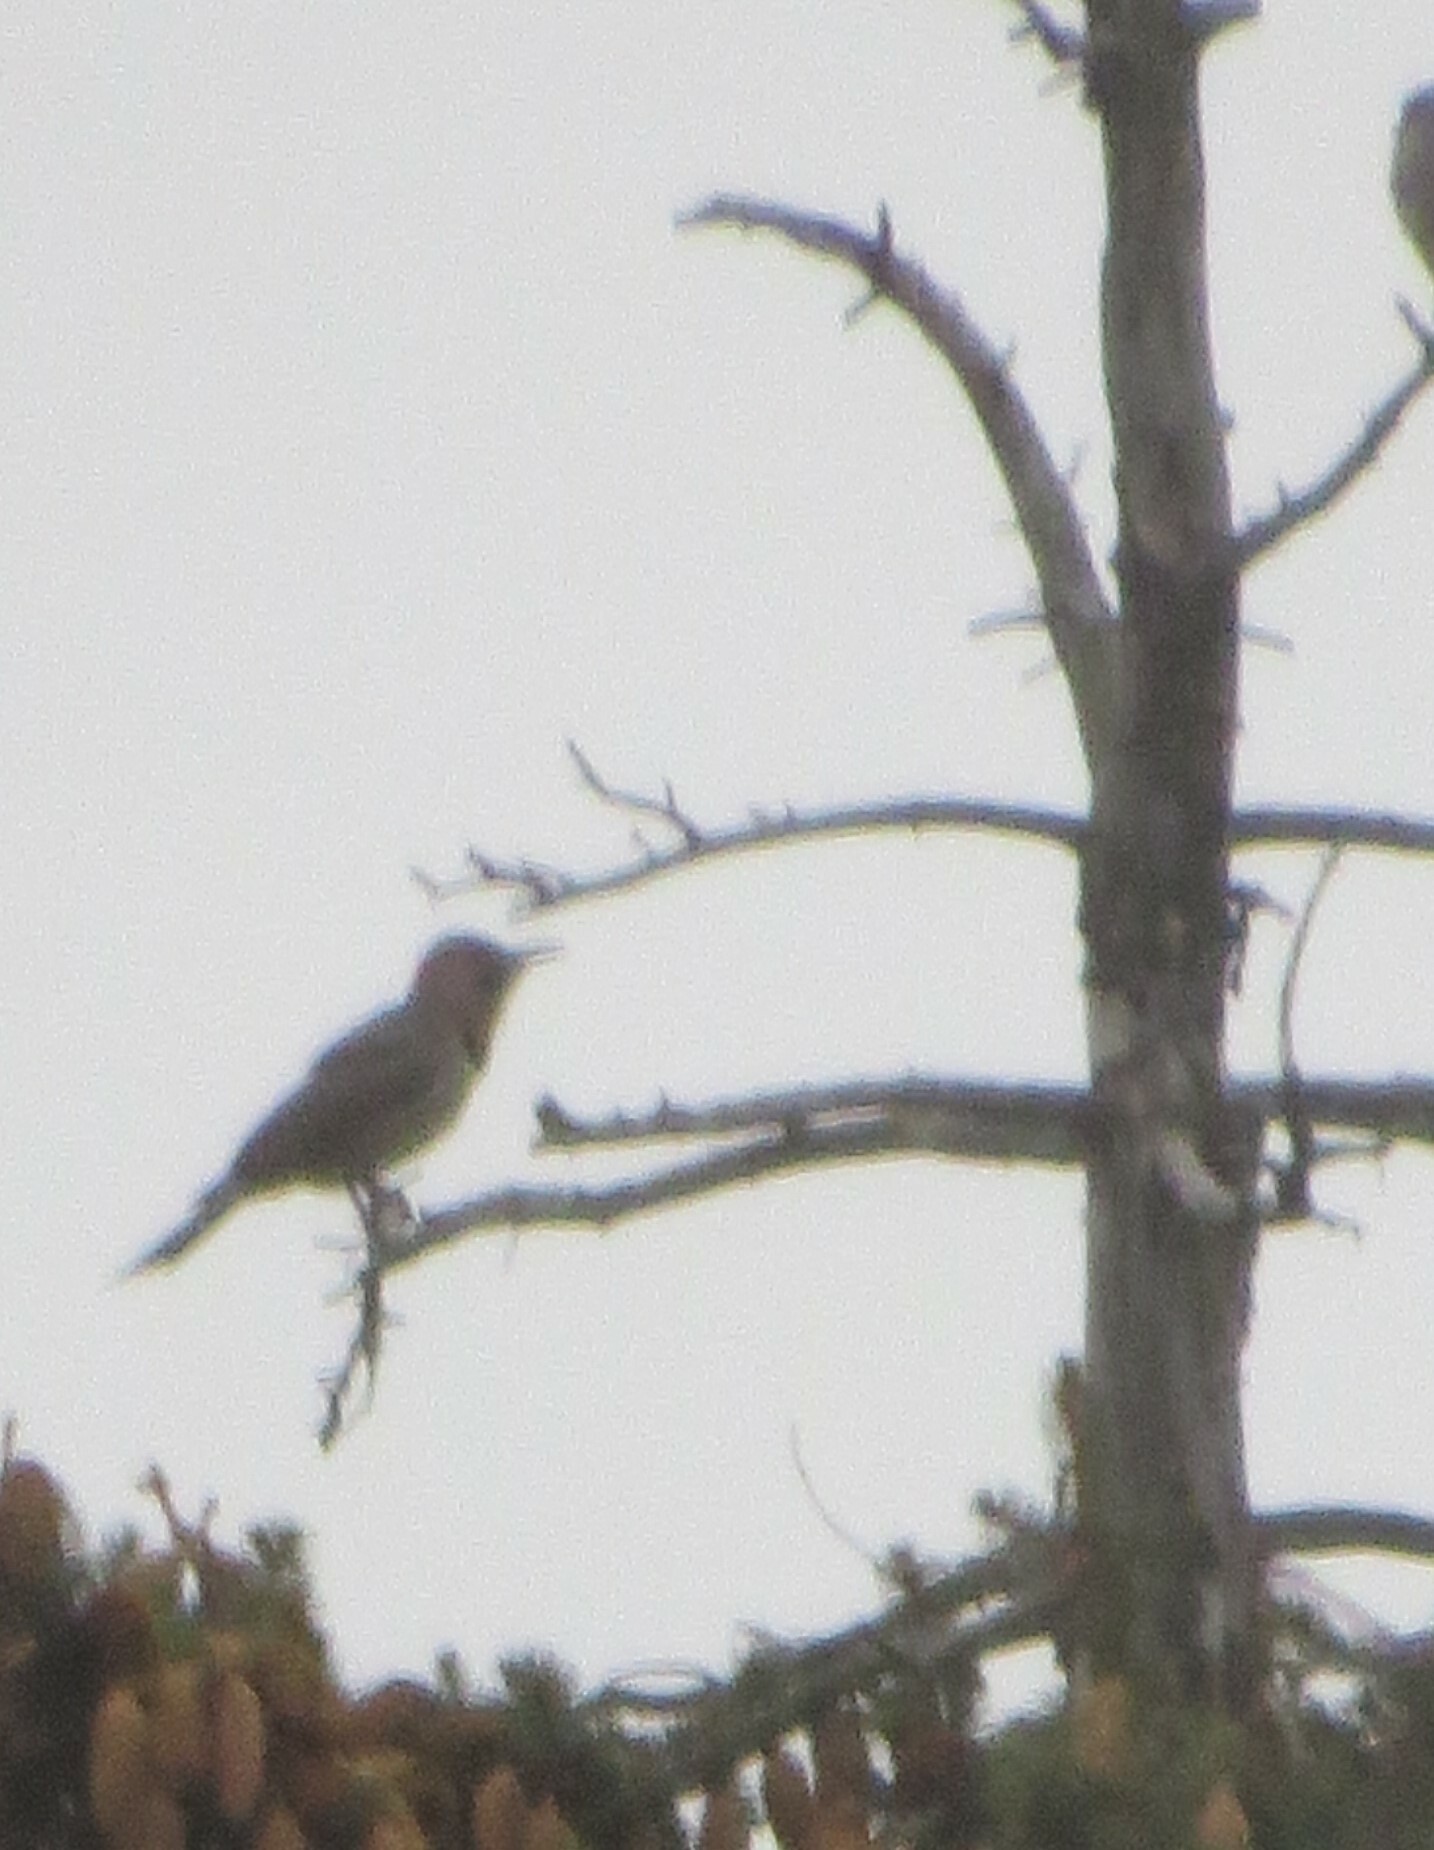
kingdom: Animalia
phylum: Chordata
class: Aves
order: Piciformes
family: Picidae
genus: Colaptes
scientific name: Colaptes auratus
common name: Northern flicker
